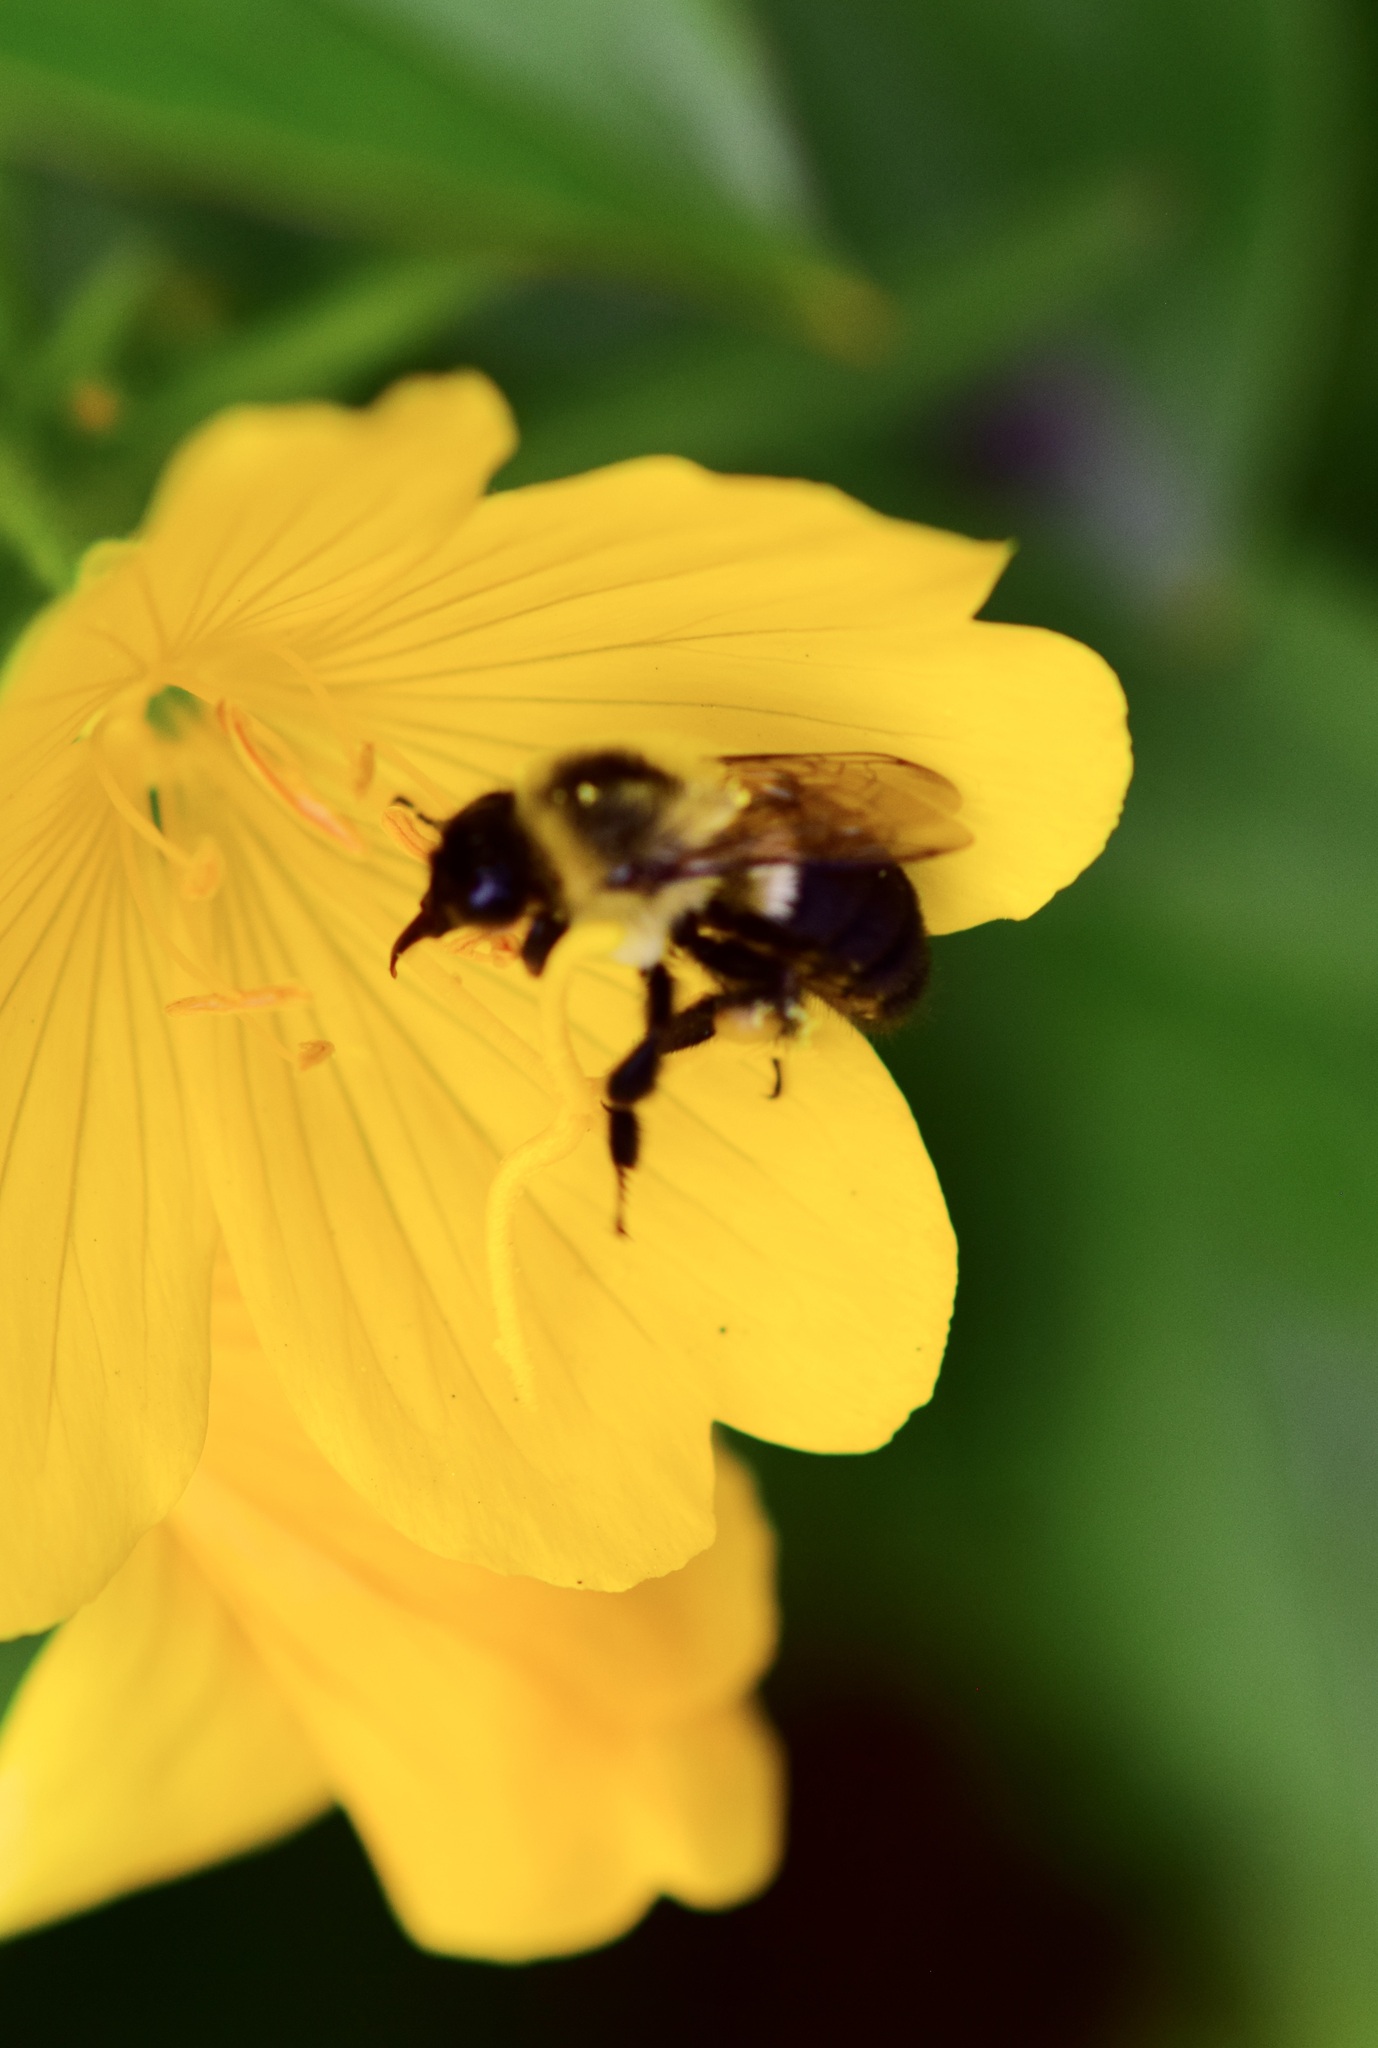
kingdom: Animalia
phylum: Arthropoda
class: Insecta
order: Hymenoptera
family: Apidae
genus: Bombus
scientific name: Bombus impatiens
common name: Common eastern bumble bee
